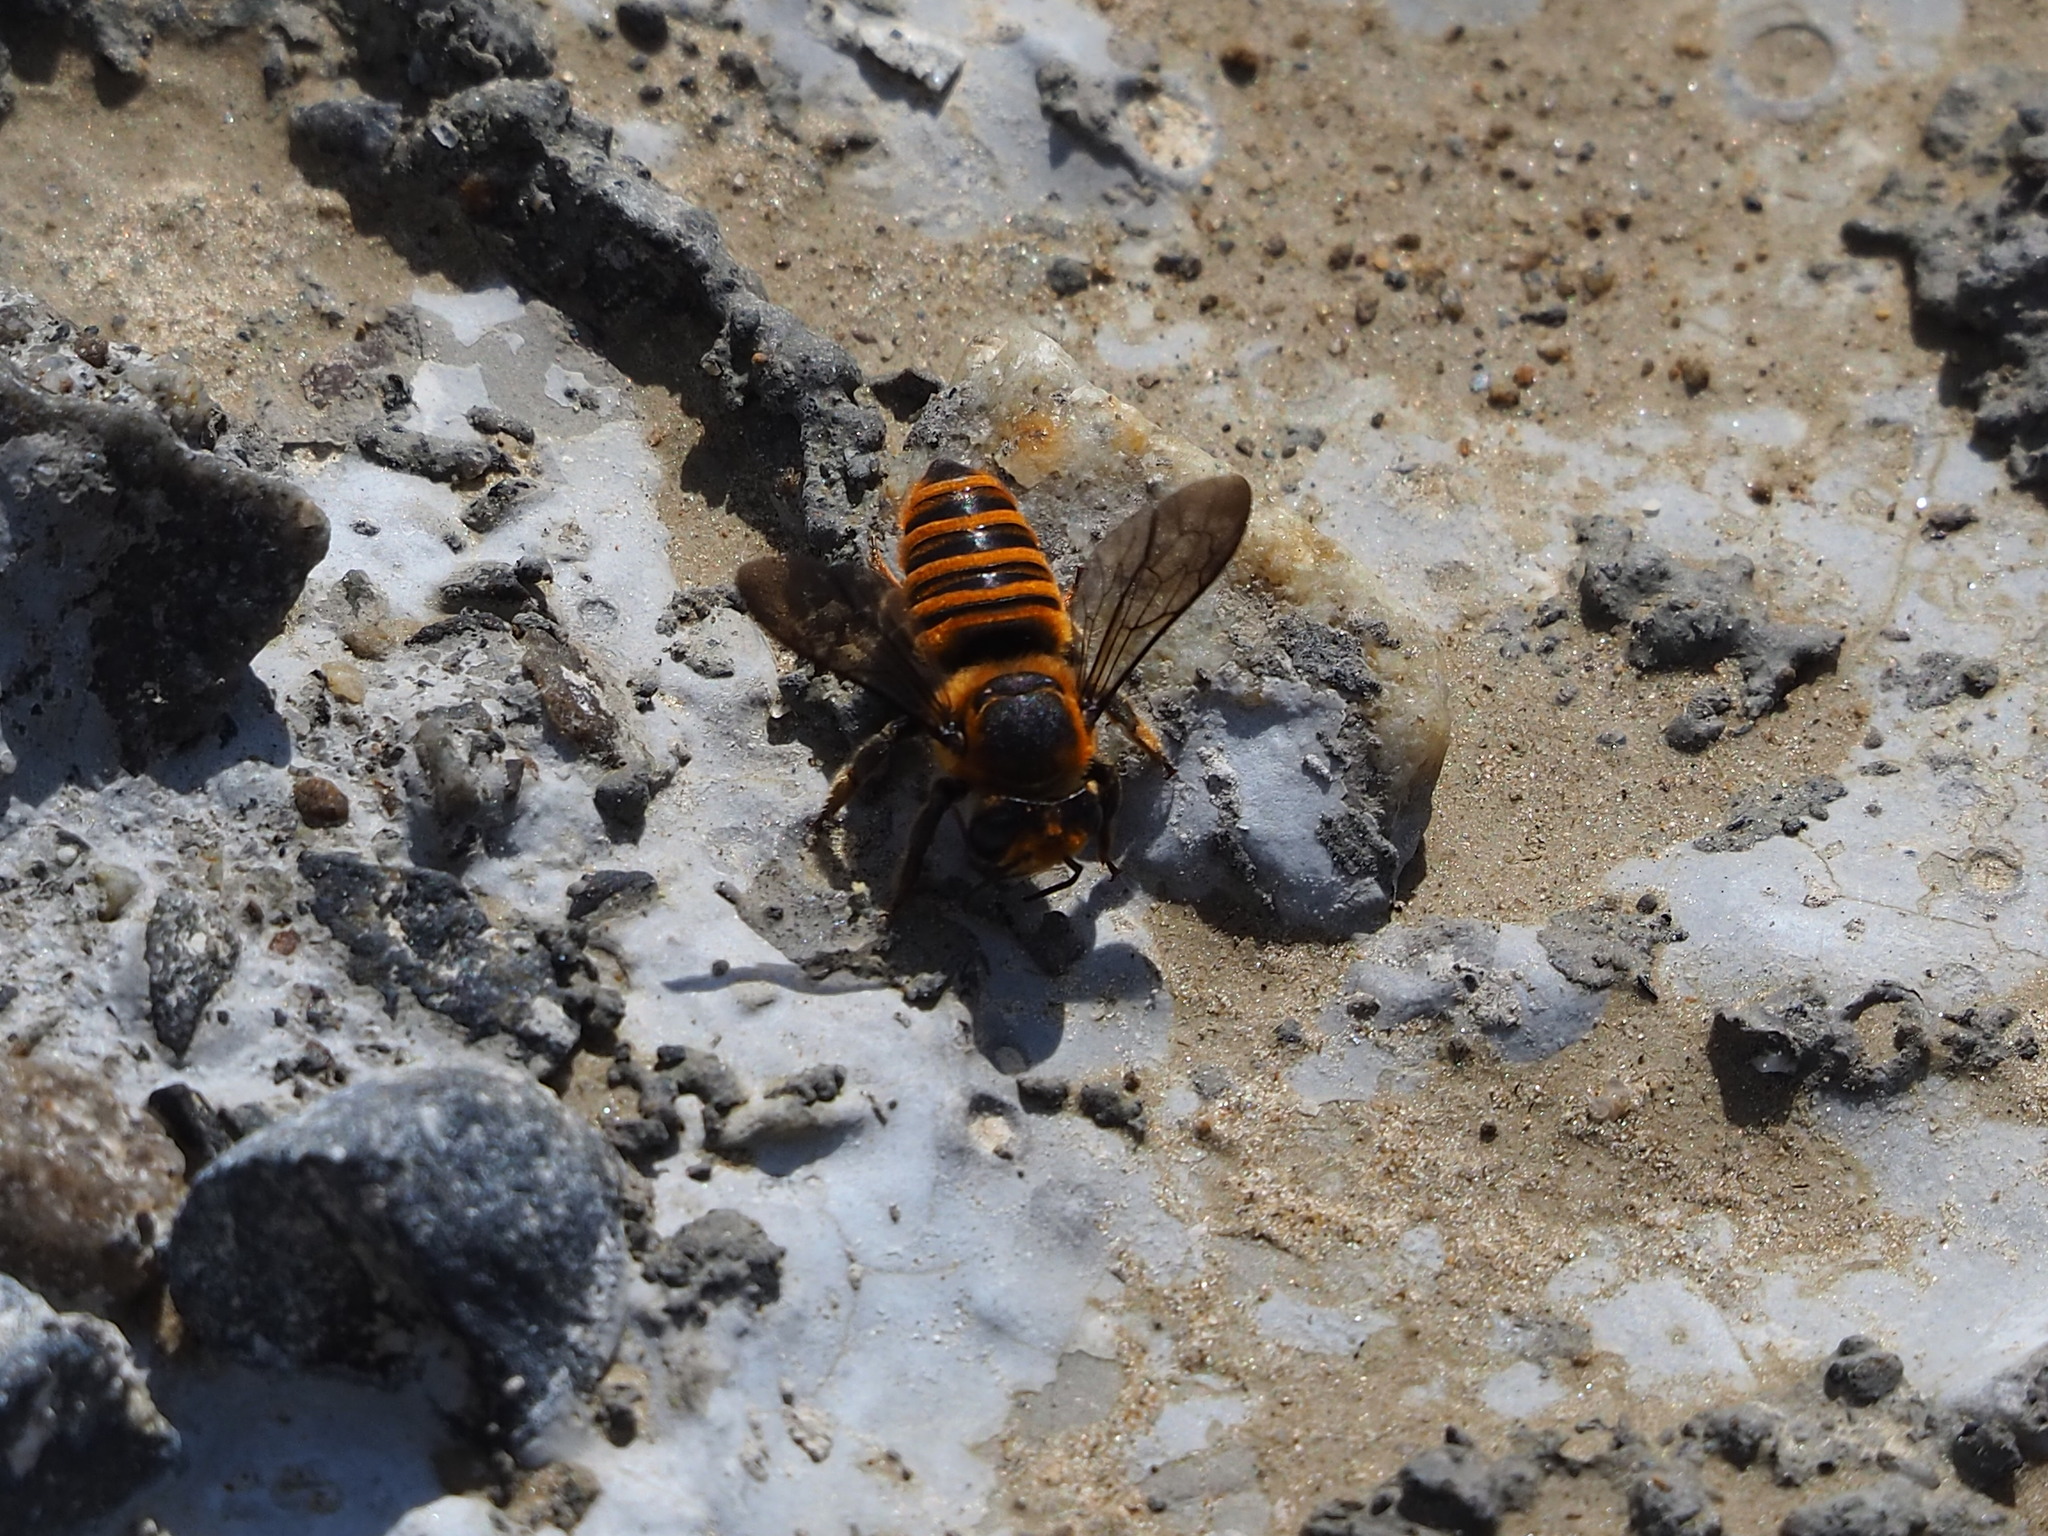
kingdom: Animalia
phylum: Arthropoda
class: Insecta
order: Hymenoptera
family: Megachilidae
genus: Megachile
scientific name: Megachile rufovittata
